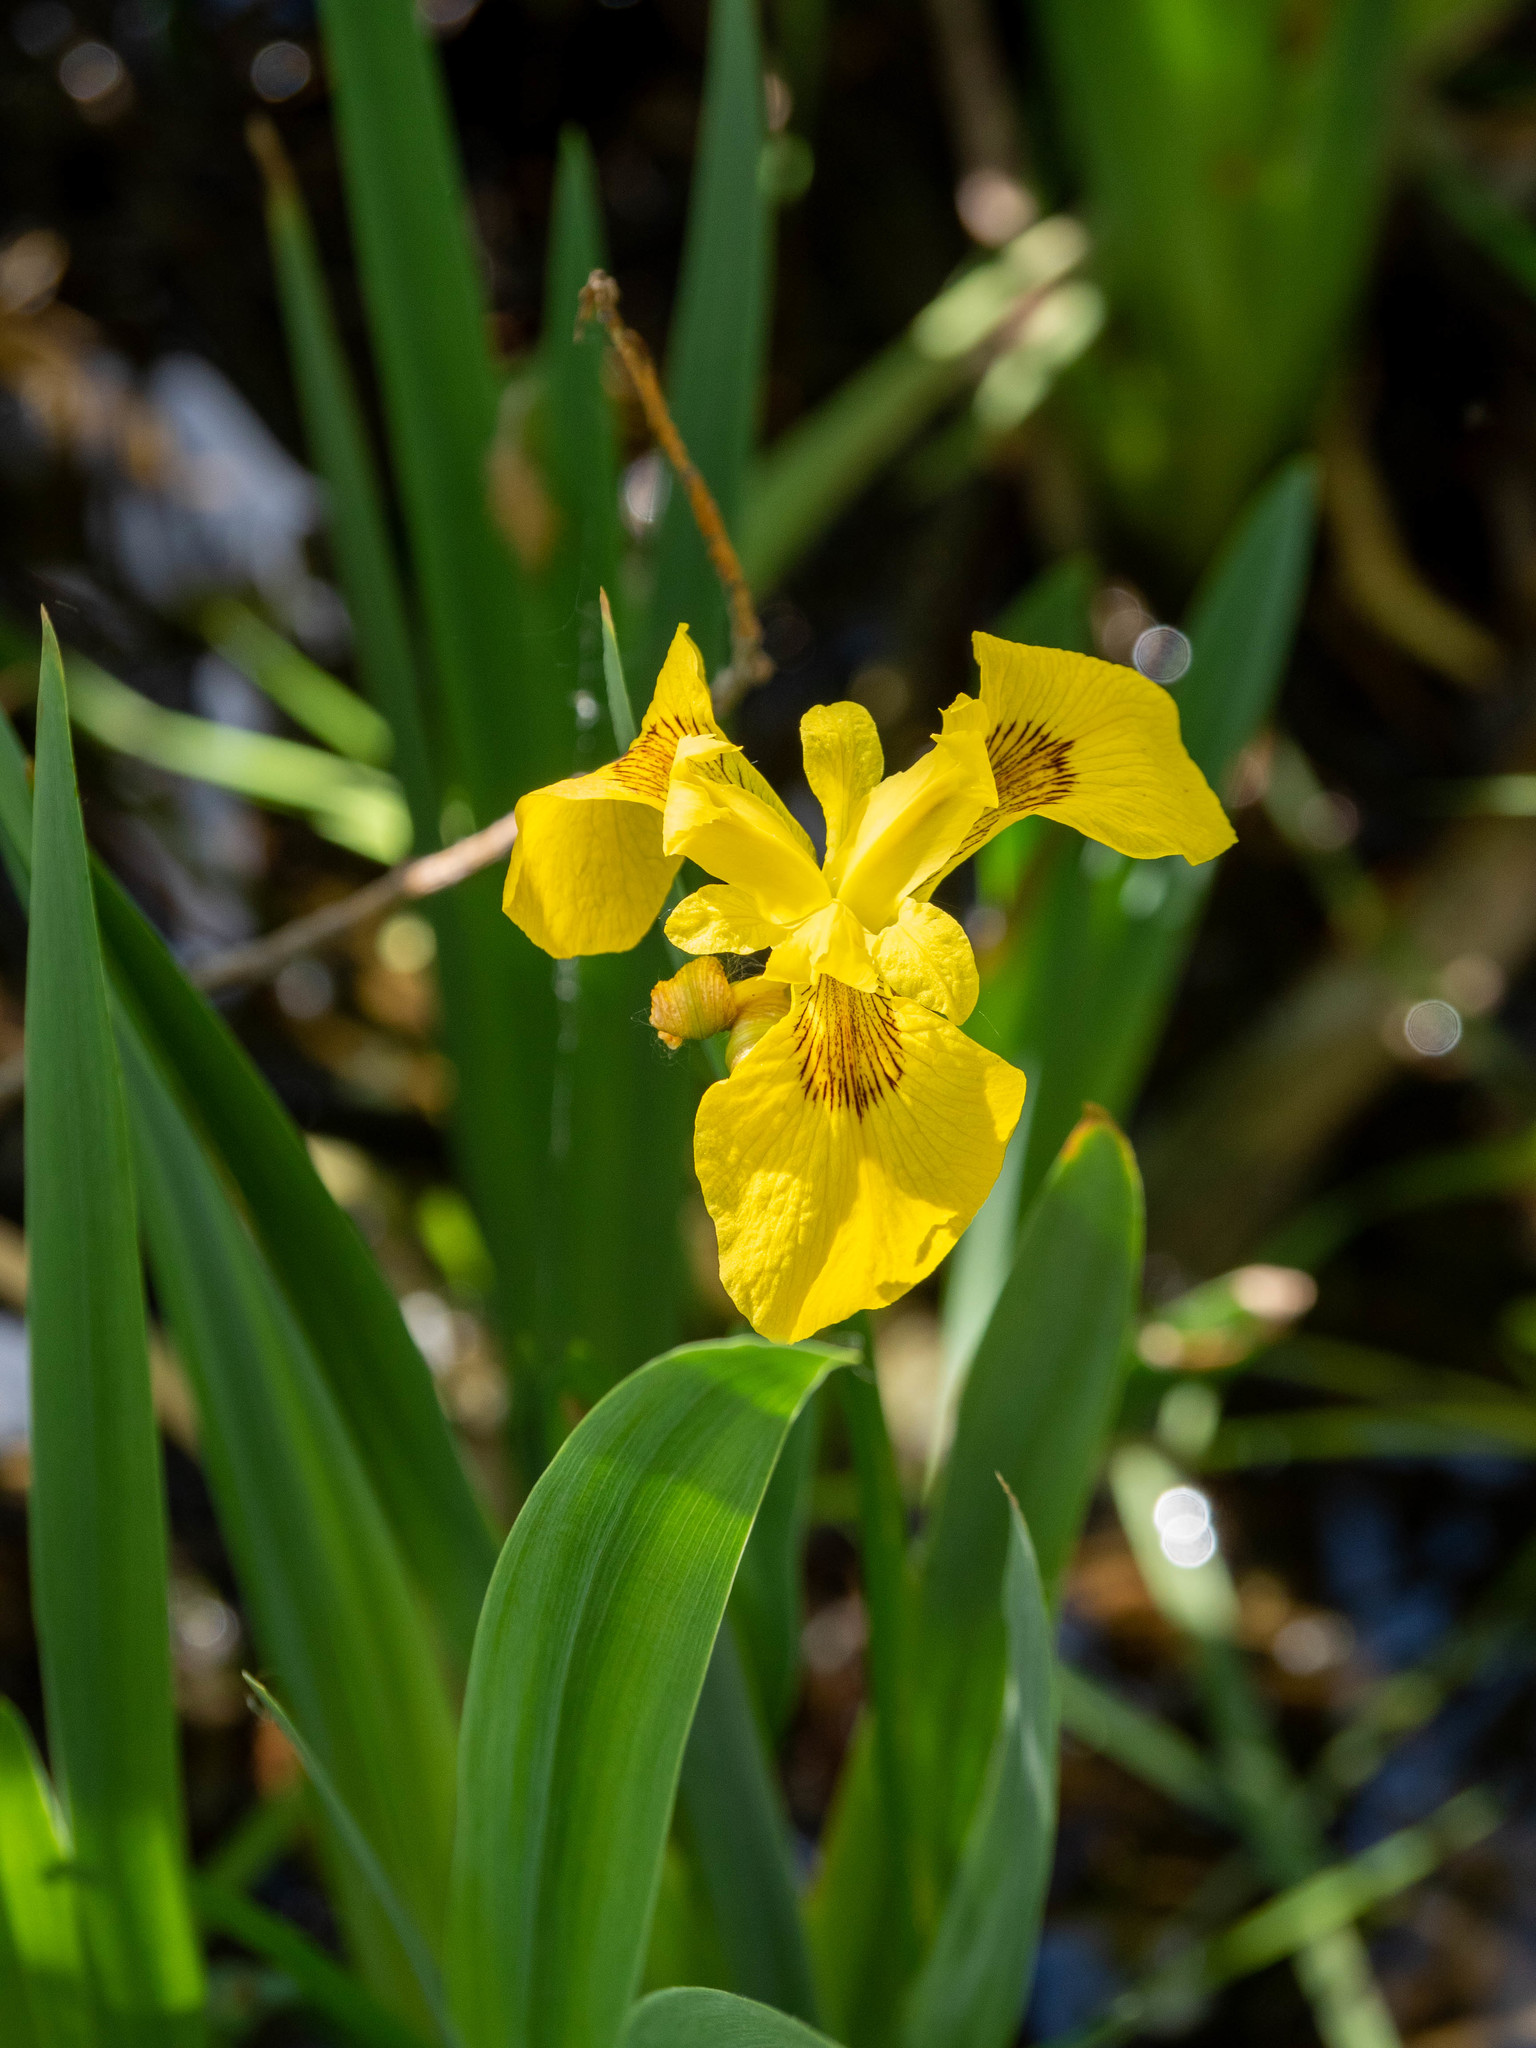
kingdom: Plantae
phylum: Tracheophyta
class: Liliopsida
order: Asparagales
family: Iridaceae
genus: Iris
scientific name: Iris pseudacorus
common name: Yellow flag
